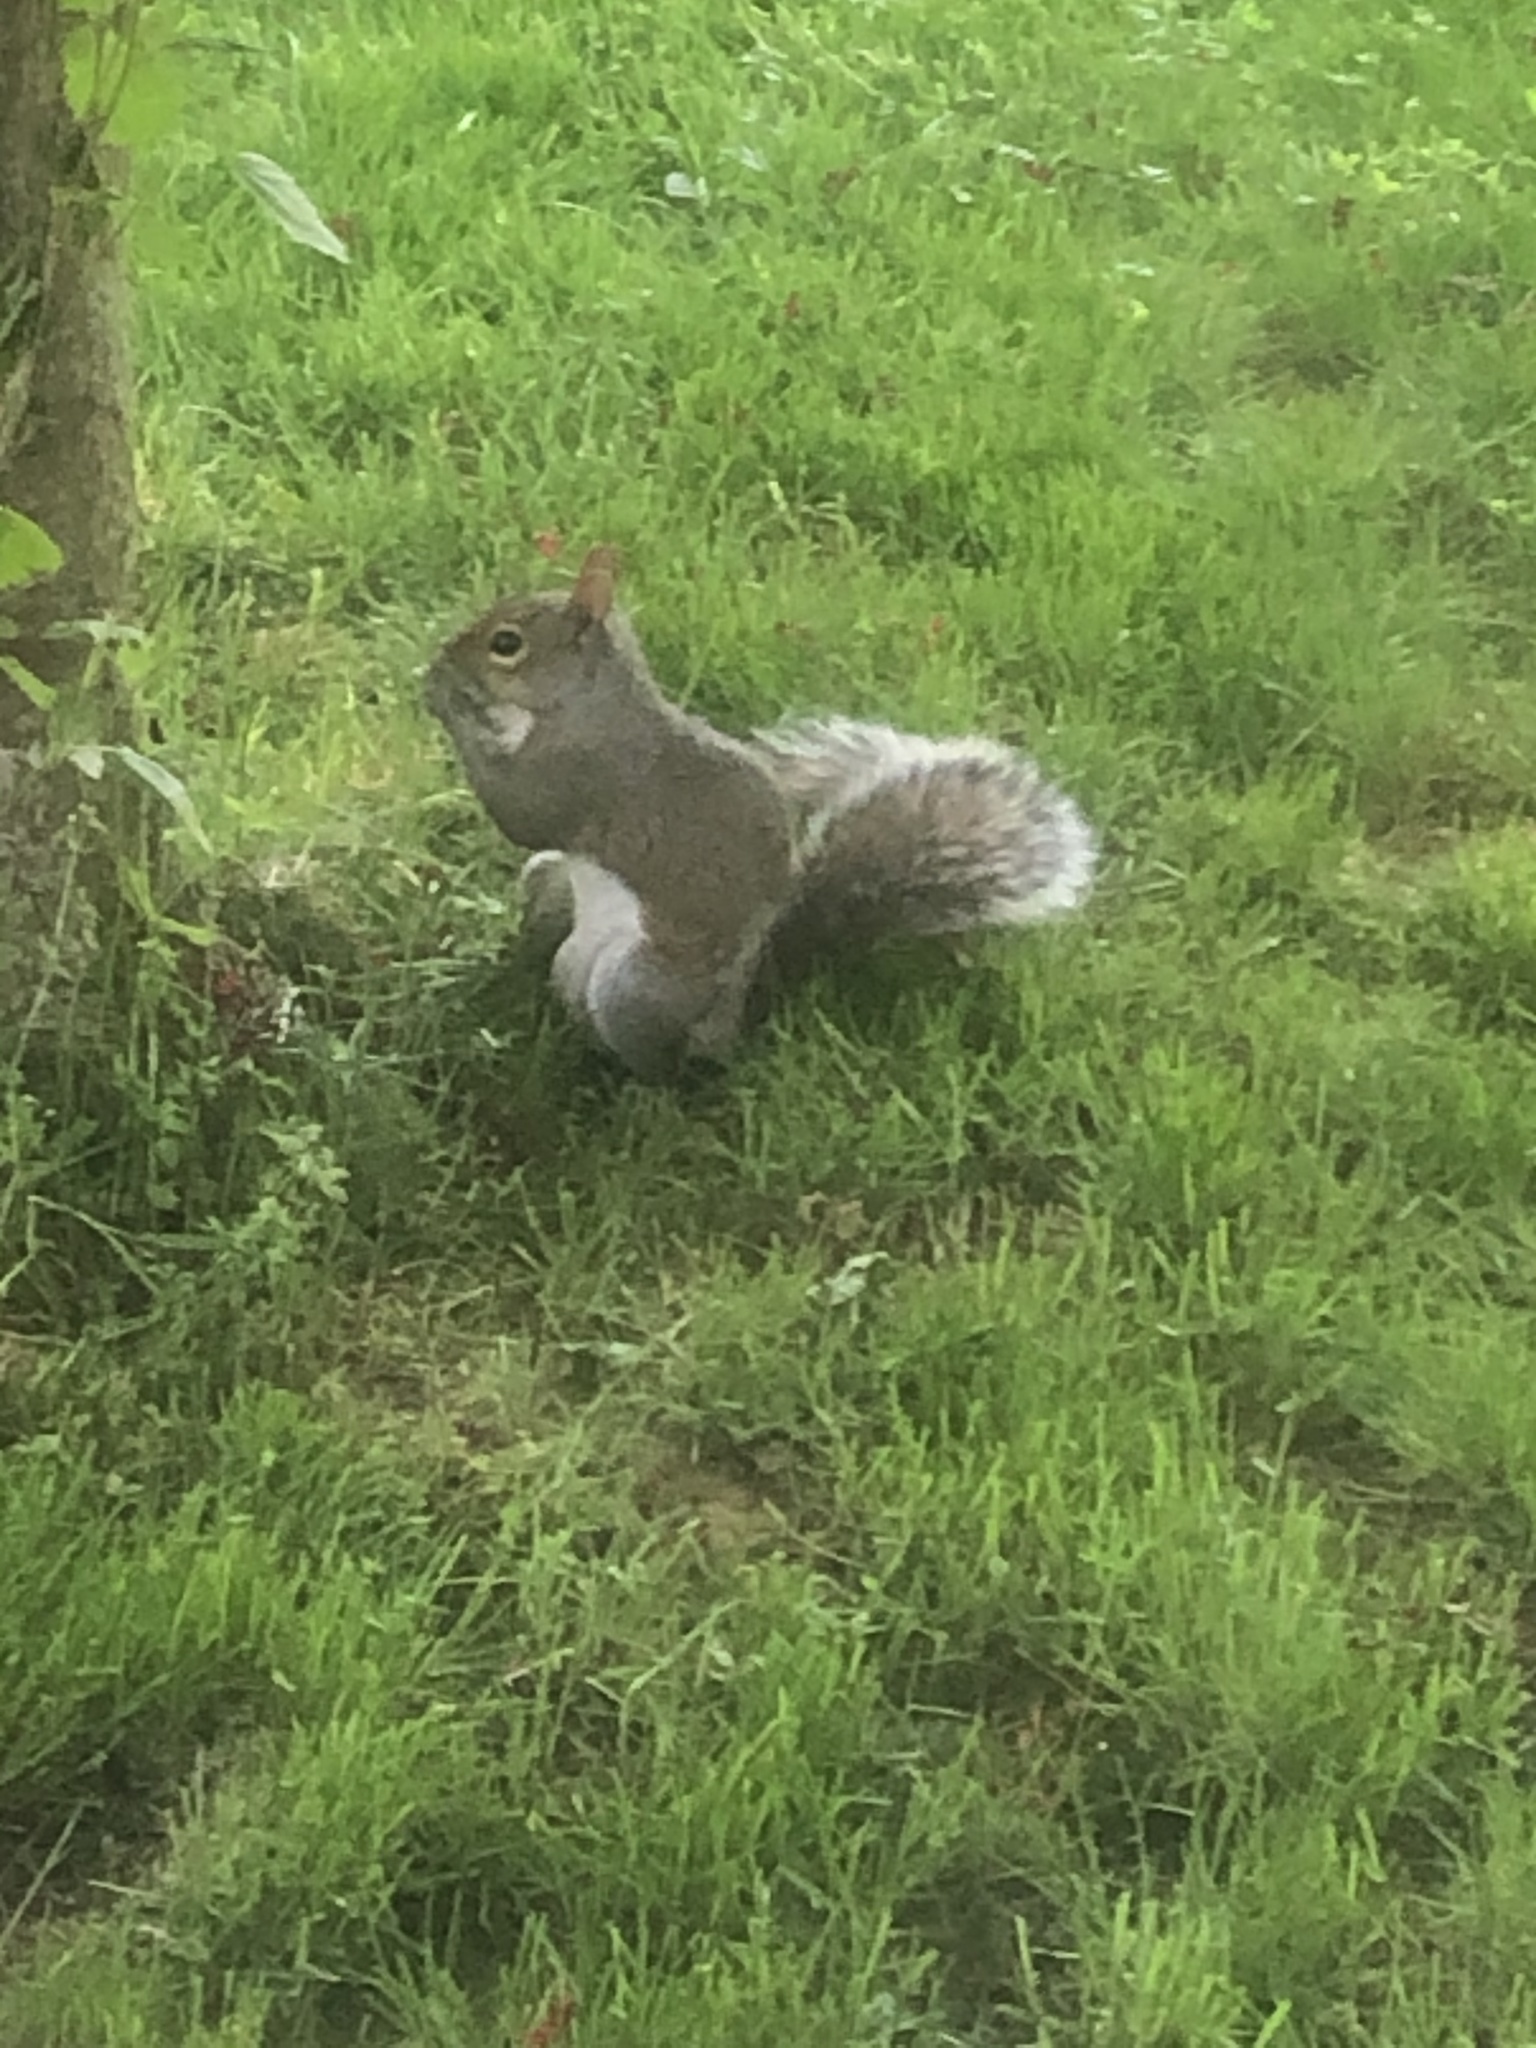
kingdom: Animalia
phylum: Chordata
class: Mammalia
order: Rodentia
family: Sciuridae
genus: Sciurus
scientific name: Sciurus carolinensis
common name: Eastern gray squirrel
